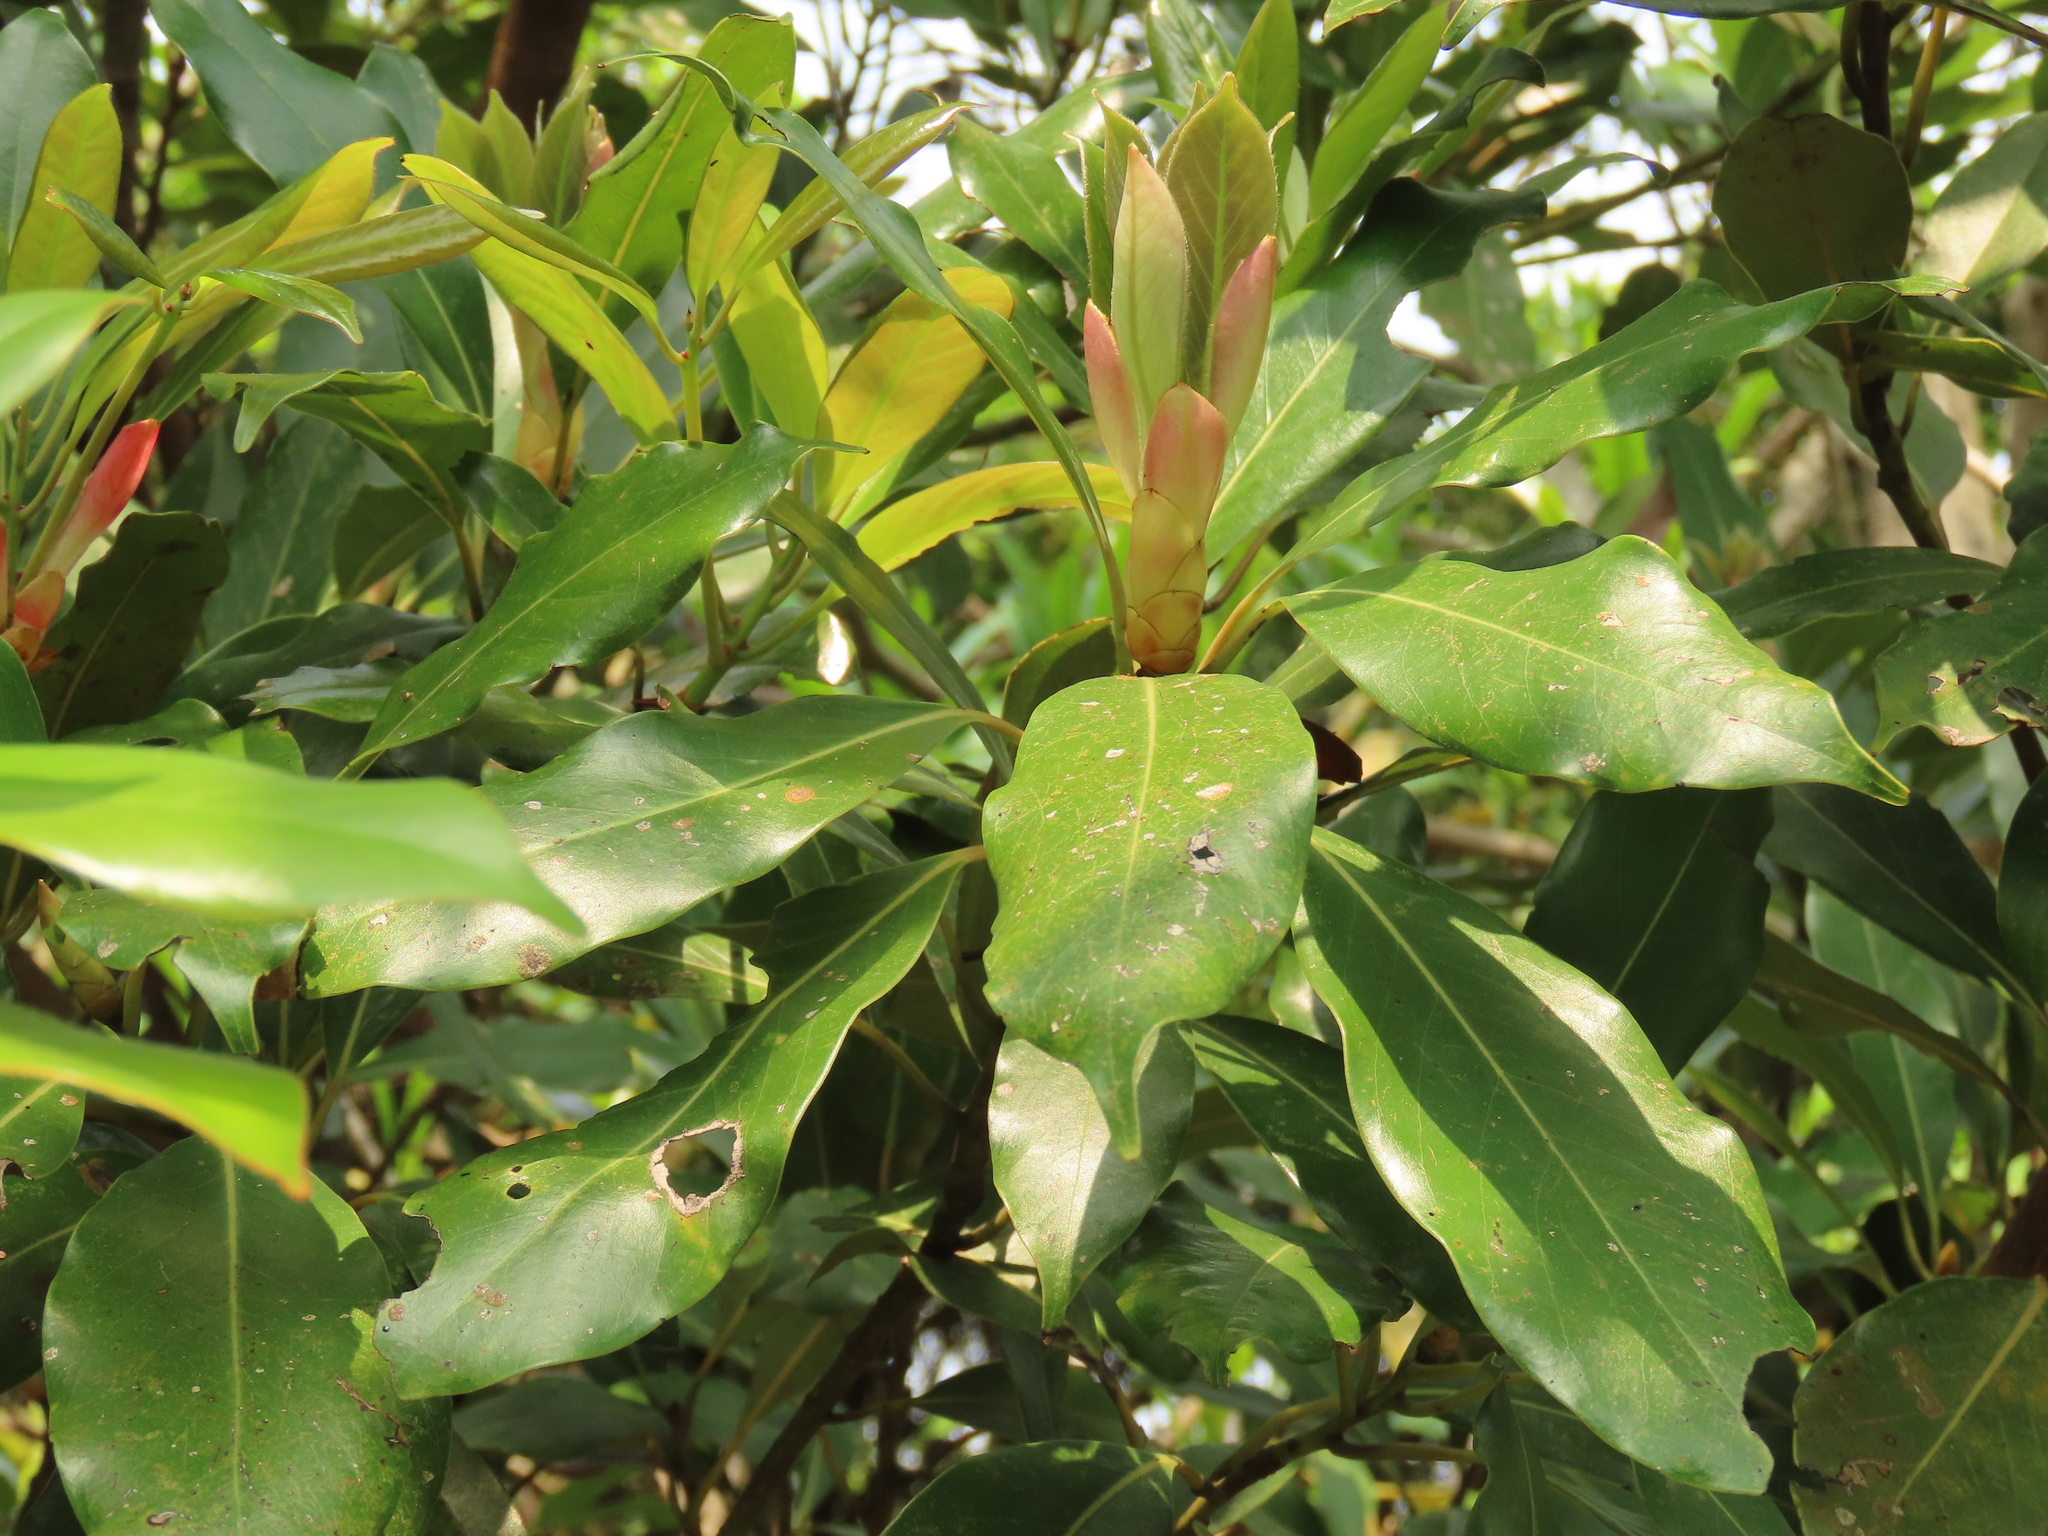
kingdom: Plantae
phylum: Tracheophyta
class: Magnoliopsida
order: Laurales
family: Lauraceae
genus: Machilus
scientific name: Machilus thunbergii
